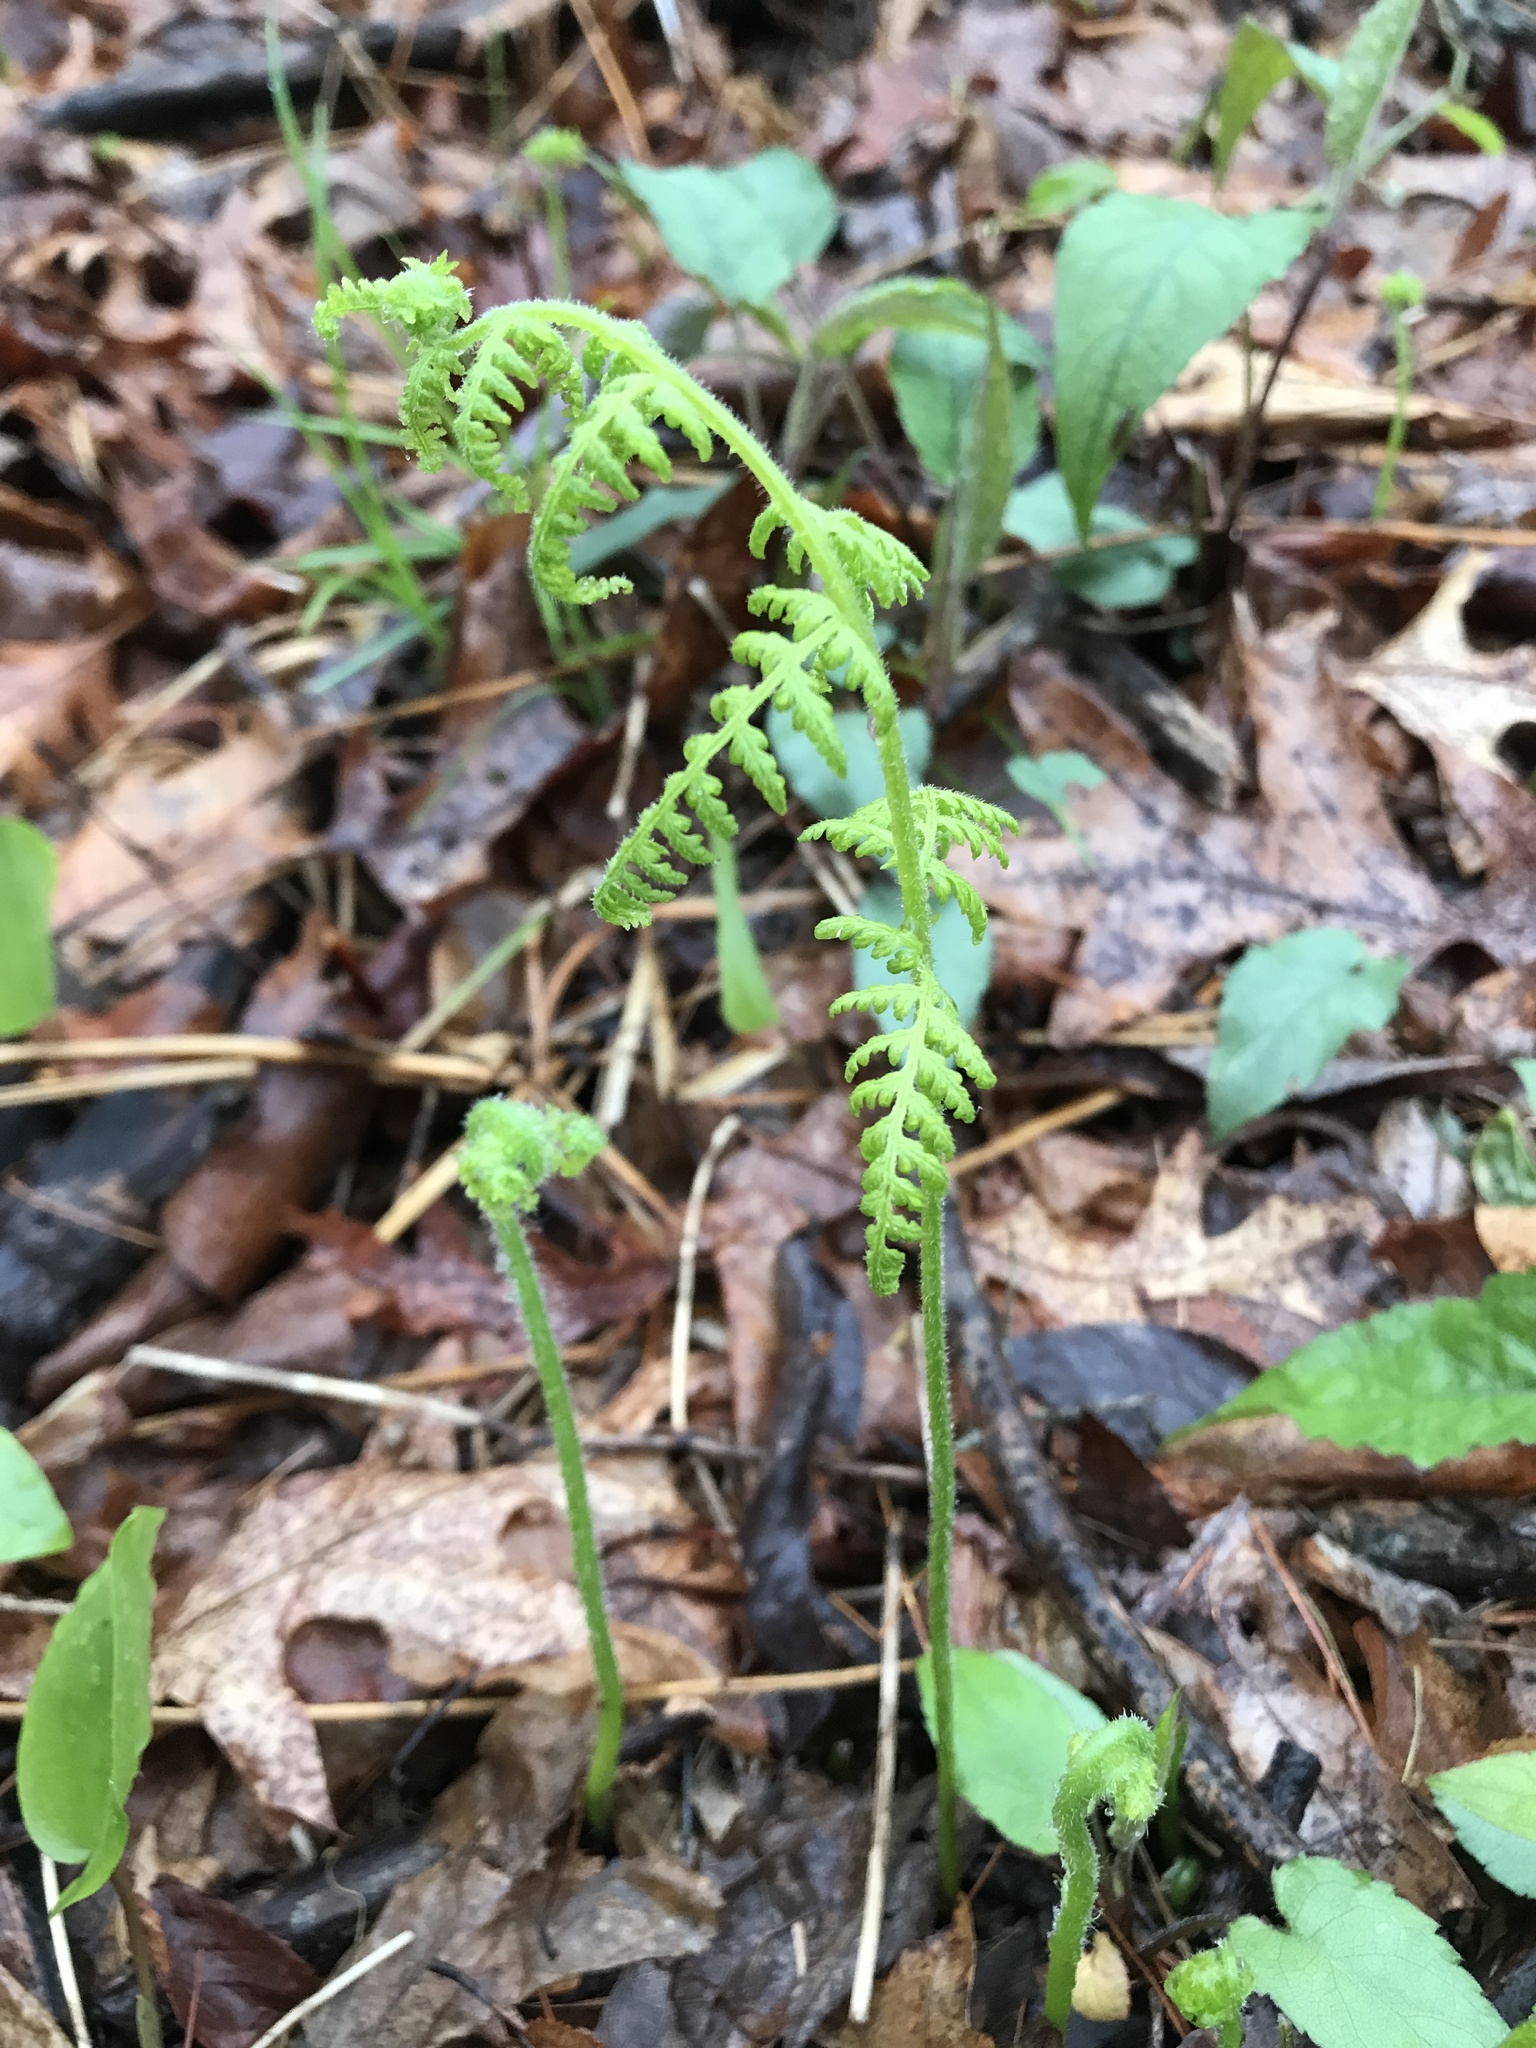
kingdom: Plantae
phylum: Tracheophyta
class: Polypodiopsida
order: Polypodiales
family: Dennstaedtiaceae
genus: Sitobolium
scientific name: Sitobolium punctilobum
